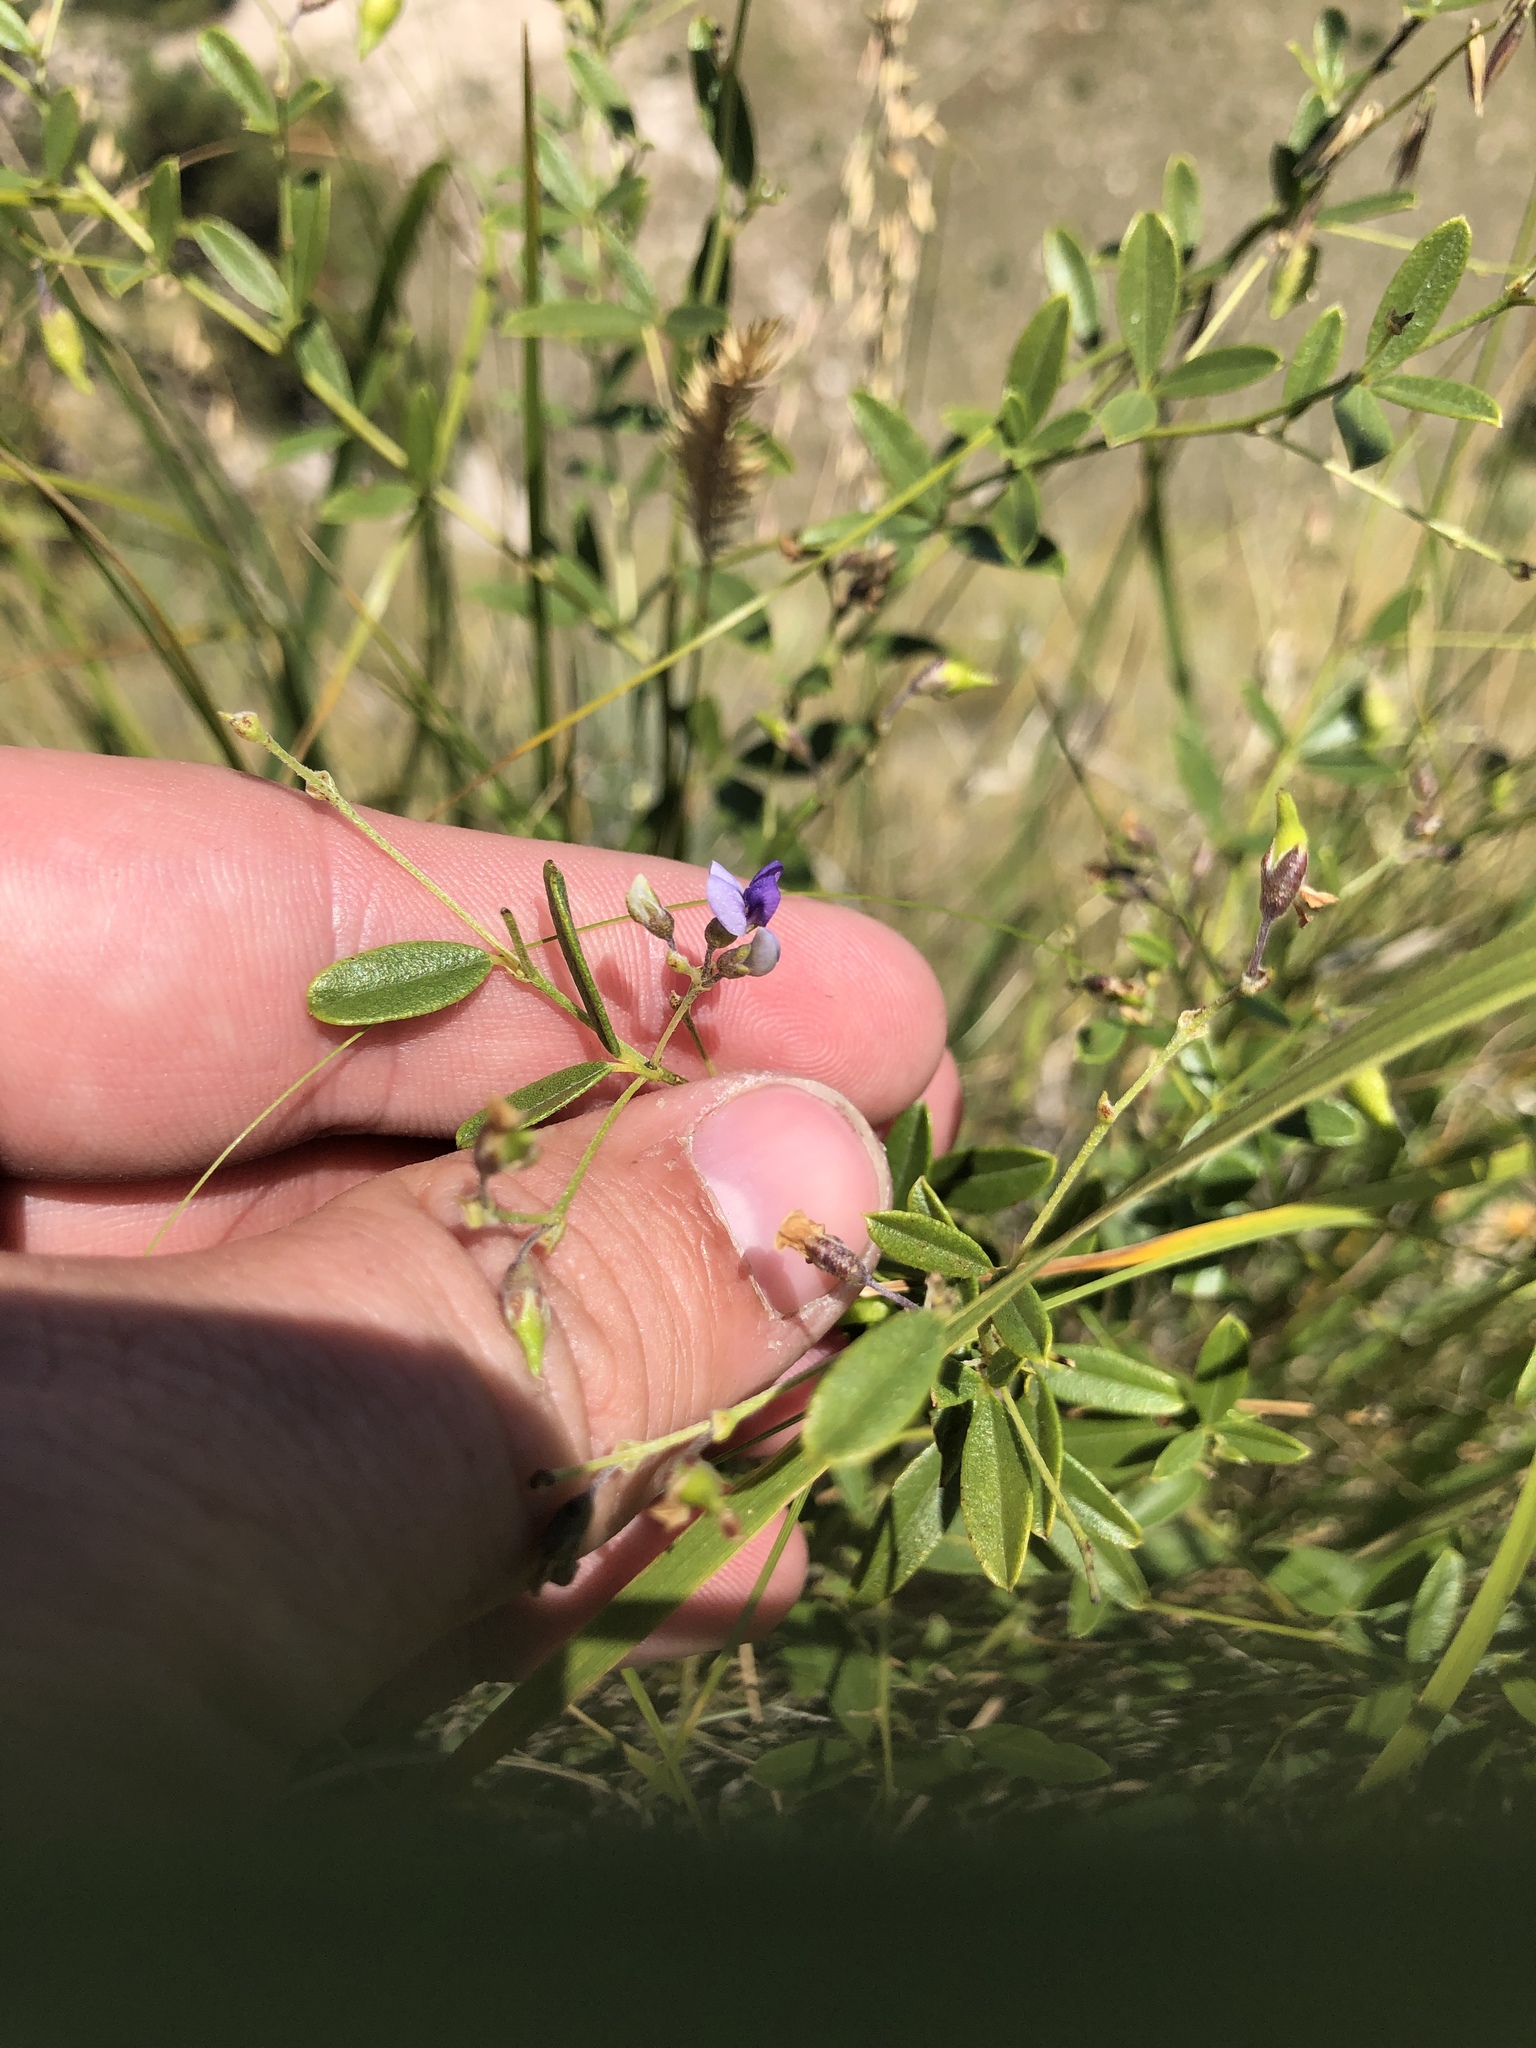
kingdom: Plantae
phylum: Tracheophyta
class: Magnoliopsida
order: Fabales
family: Fabaceae
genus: Pediomelum
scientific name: Pediomelum tenuiflorum
